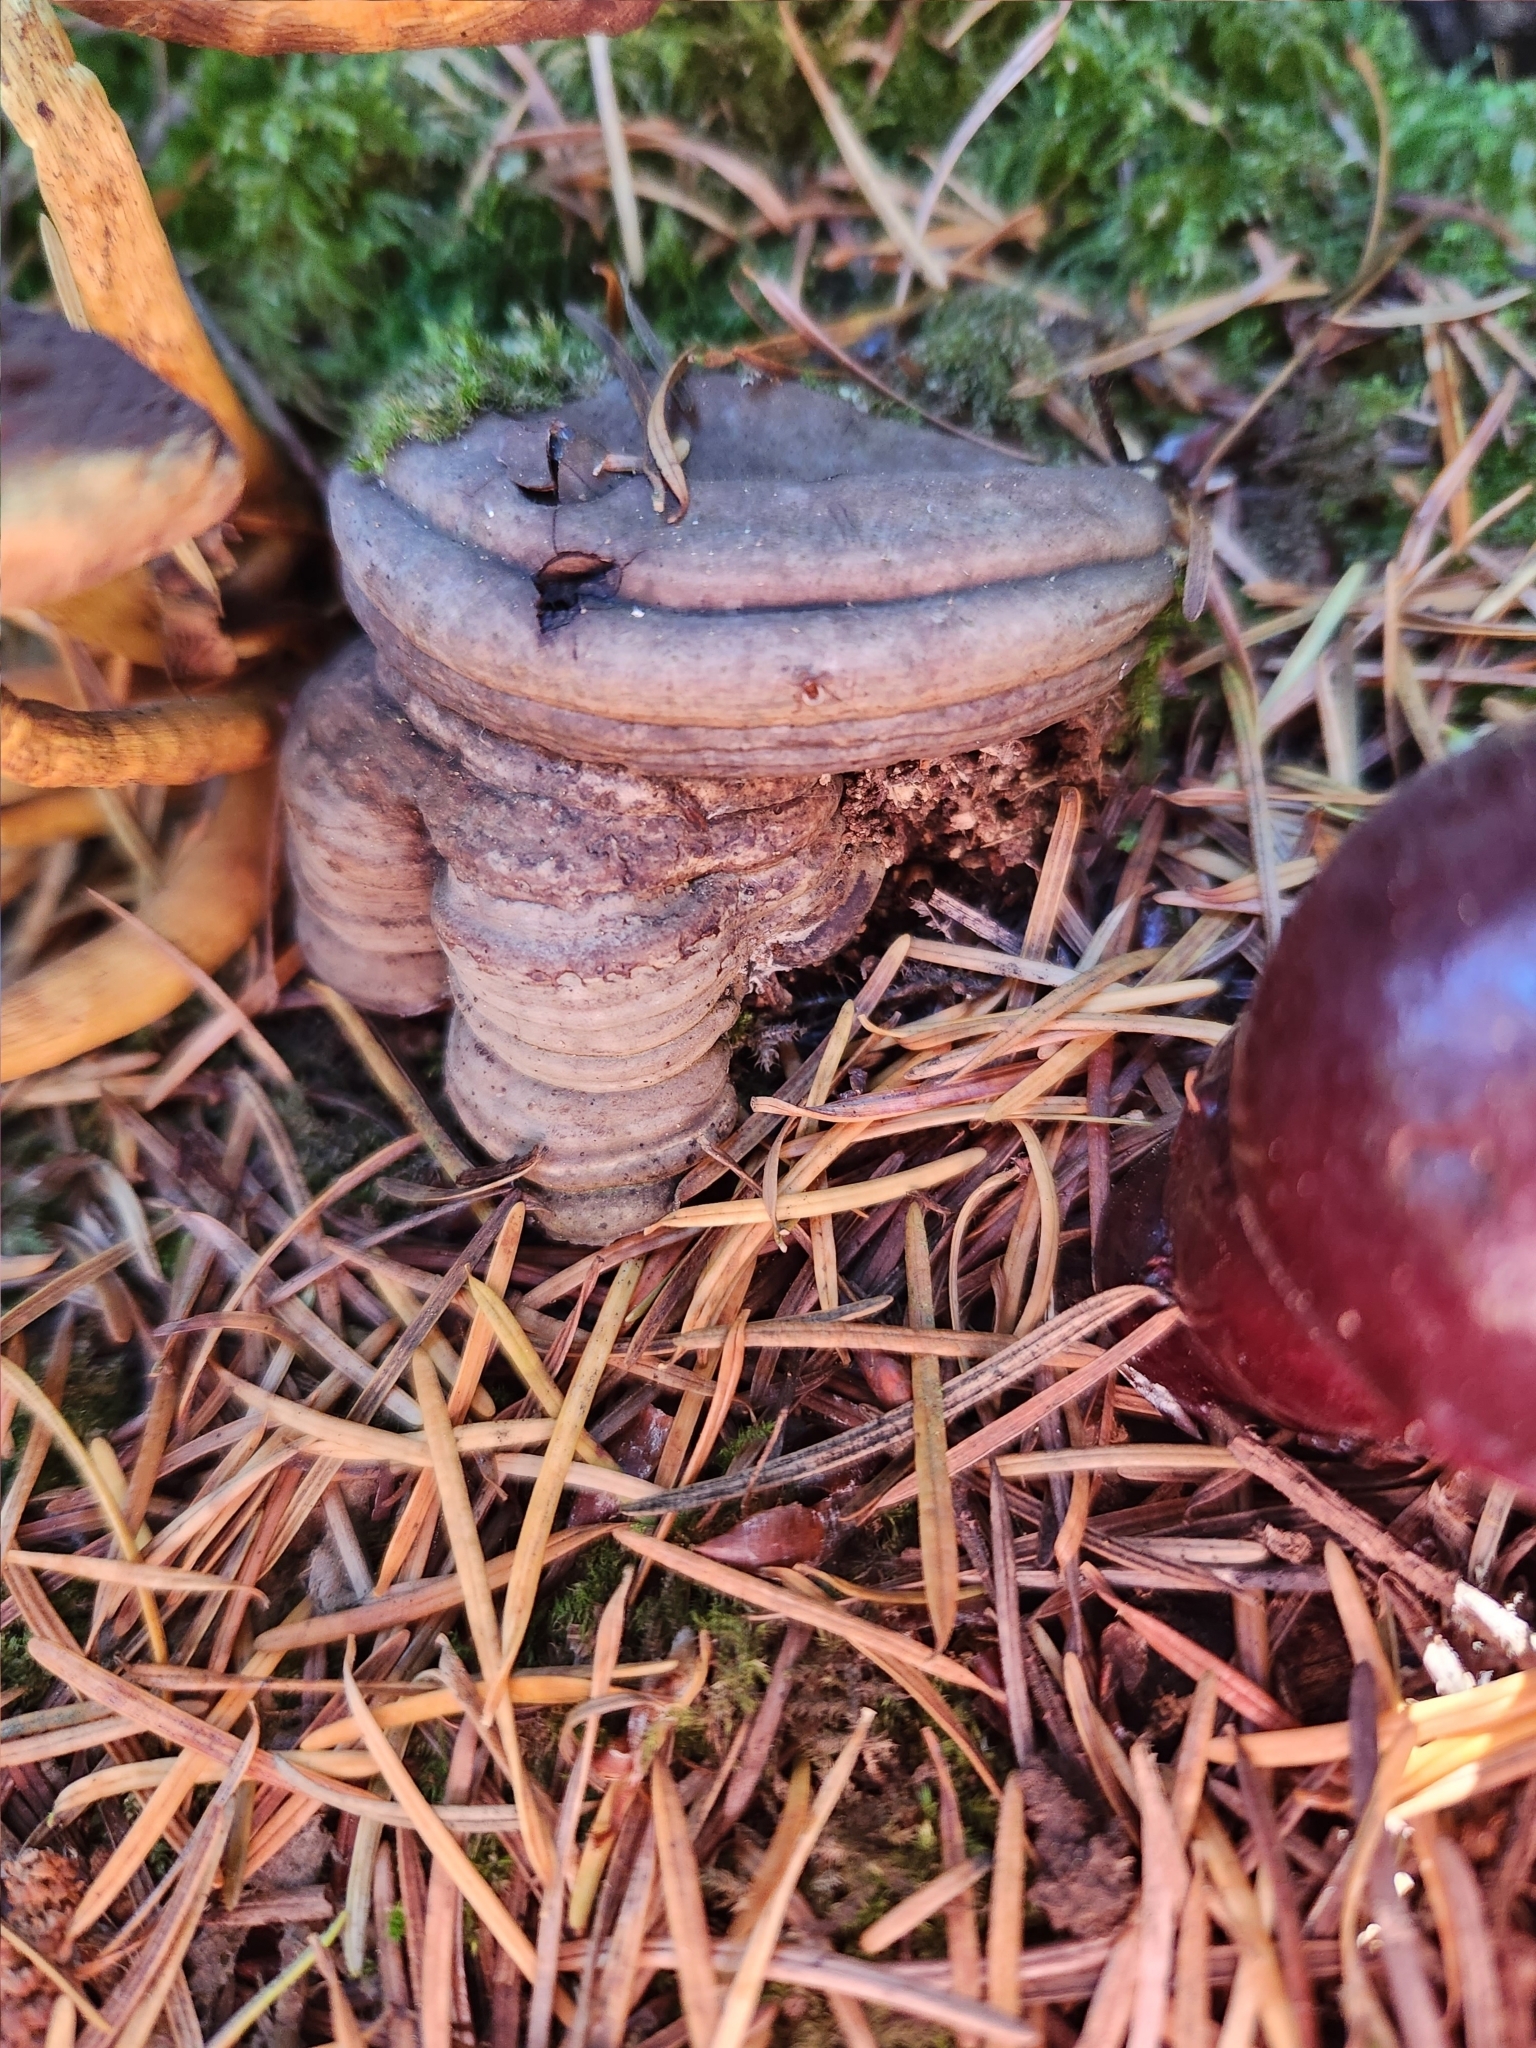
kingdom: Fungi
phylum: Basidiomycota
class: Agaricomycetes
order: Polyporales
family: Polyporaceae
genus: Ganoderma
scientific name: Ganoderma oregonense
